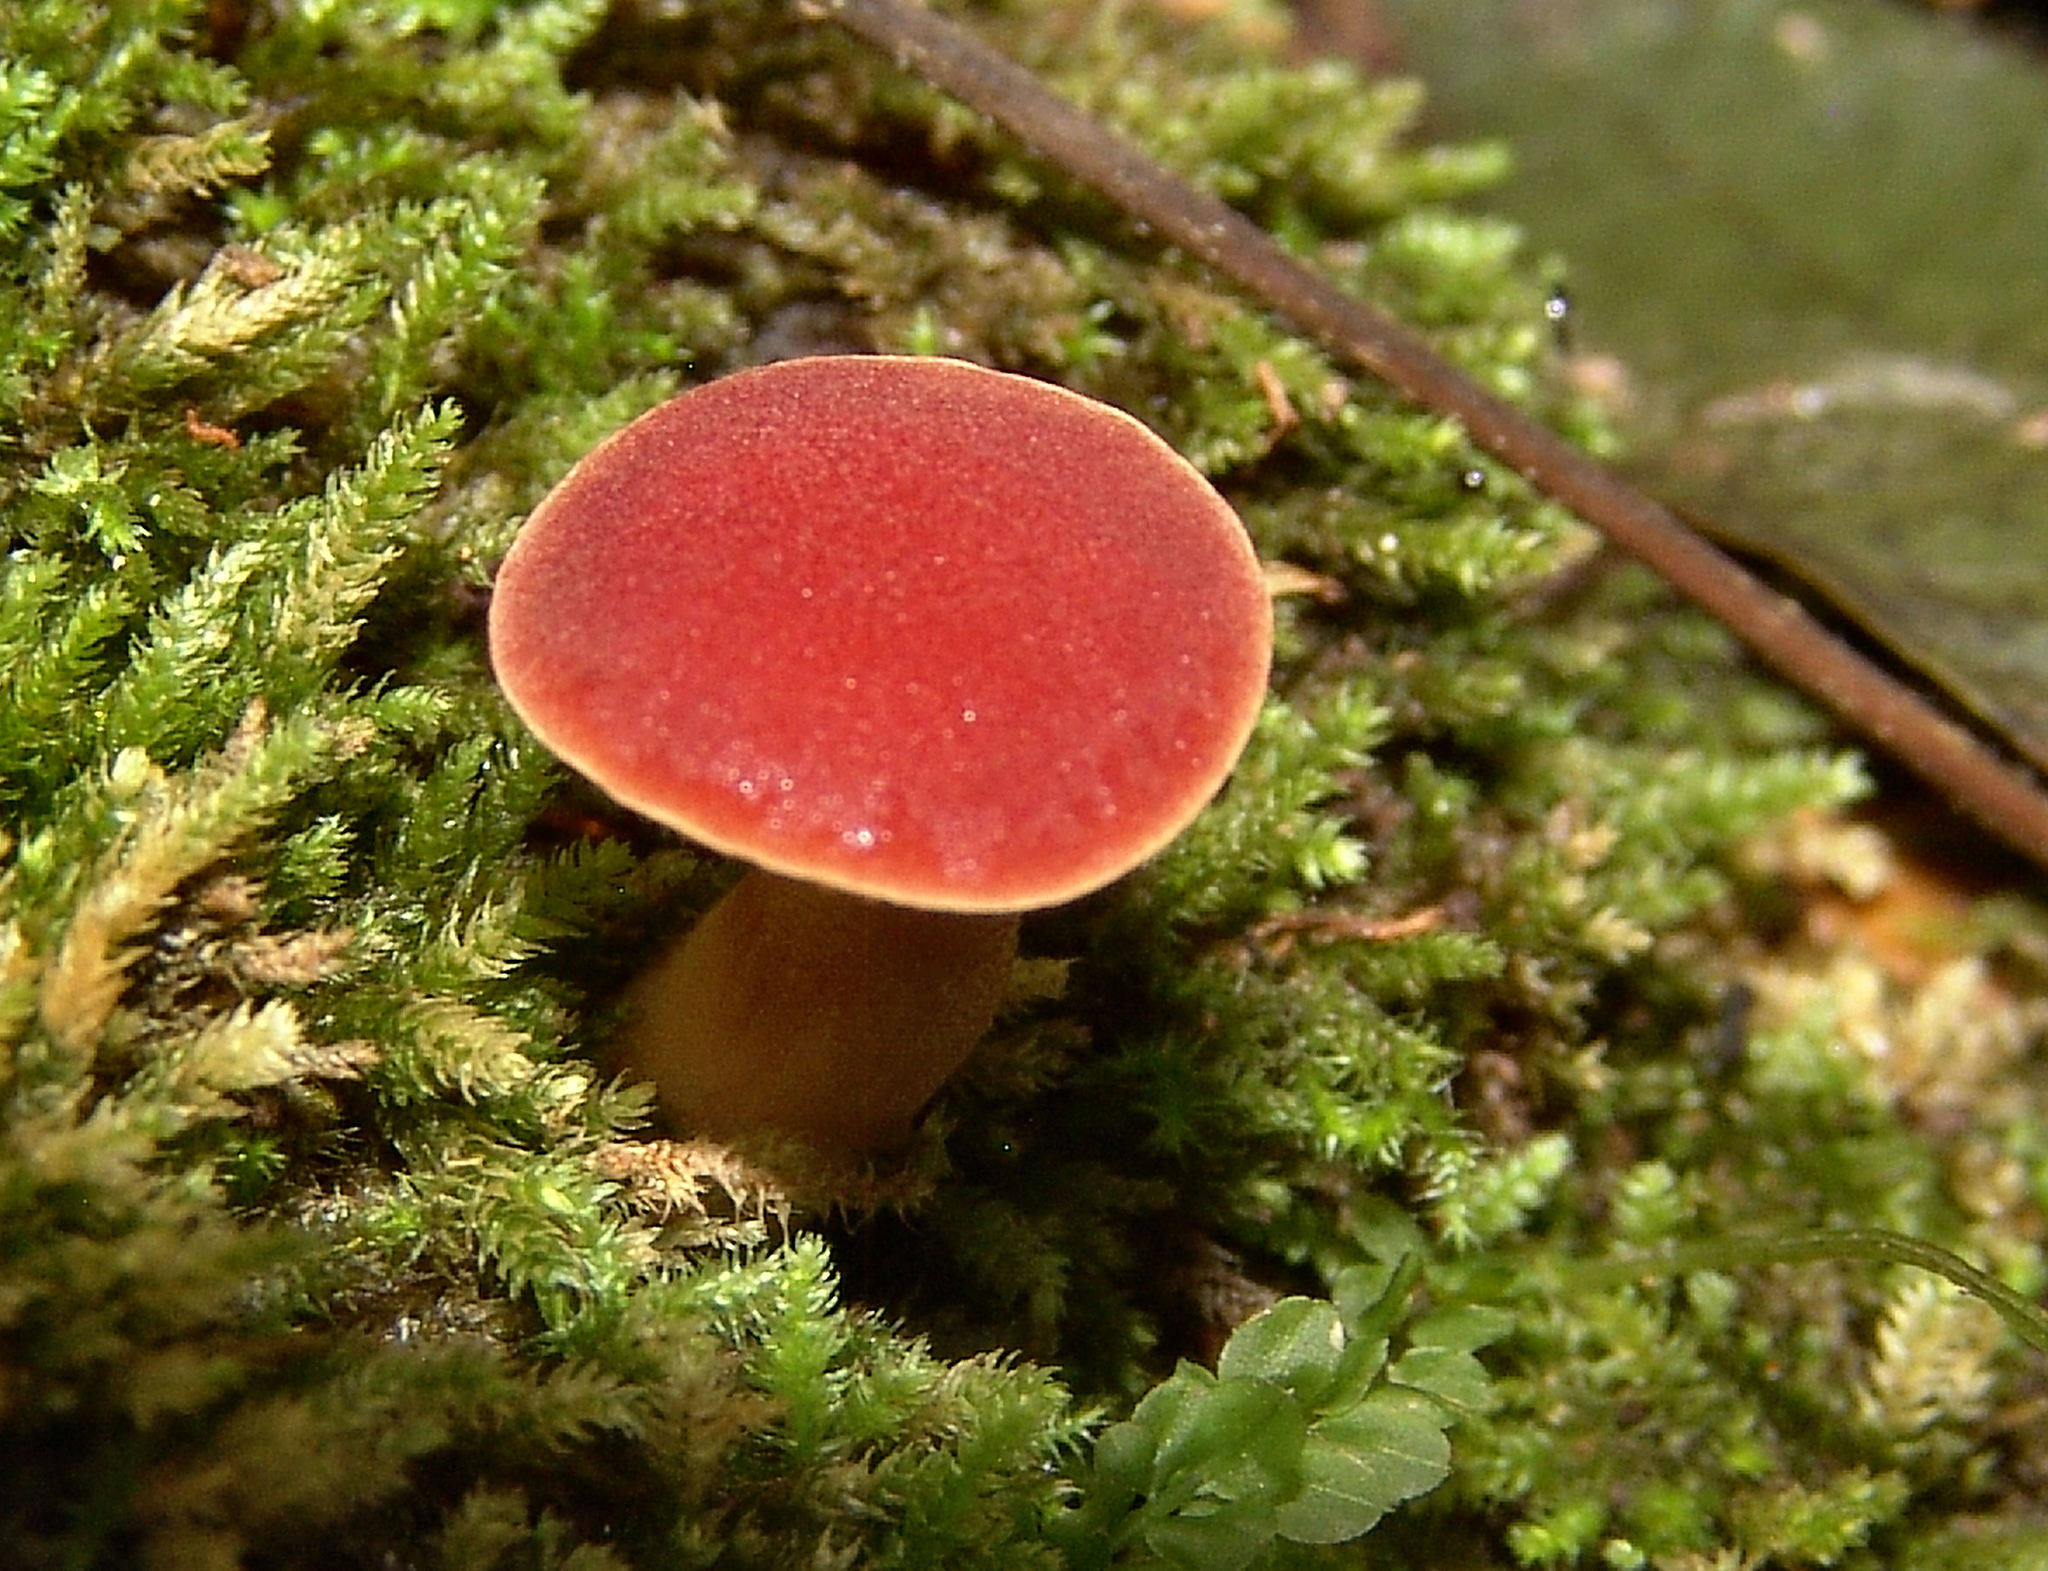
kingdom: Fungi
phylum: Basidiomycota
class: Agaricomycetes
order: Boletales
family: Boletaceae
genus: Phylloporus
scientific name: Phylloporus rhodoxanthus
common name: Golden gilled bolete
